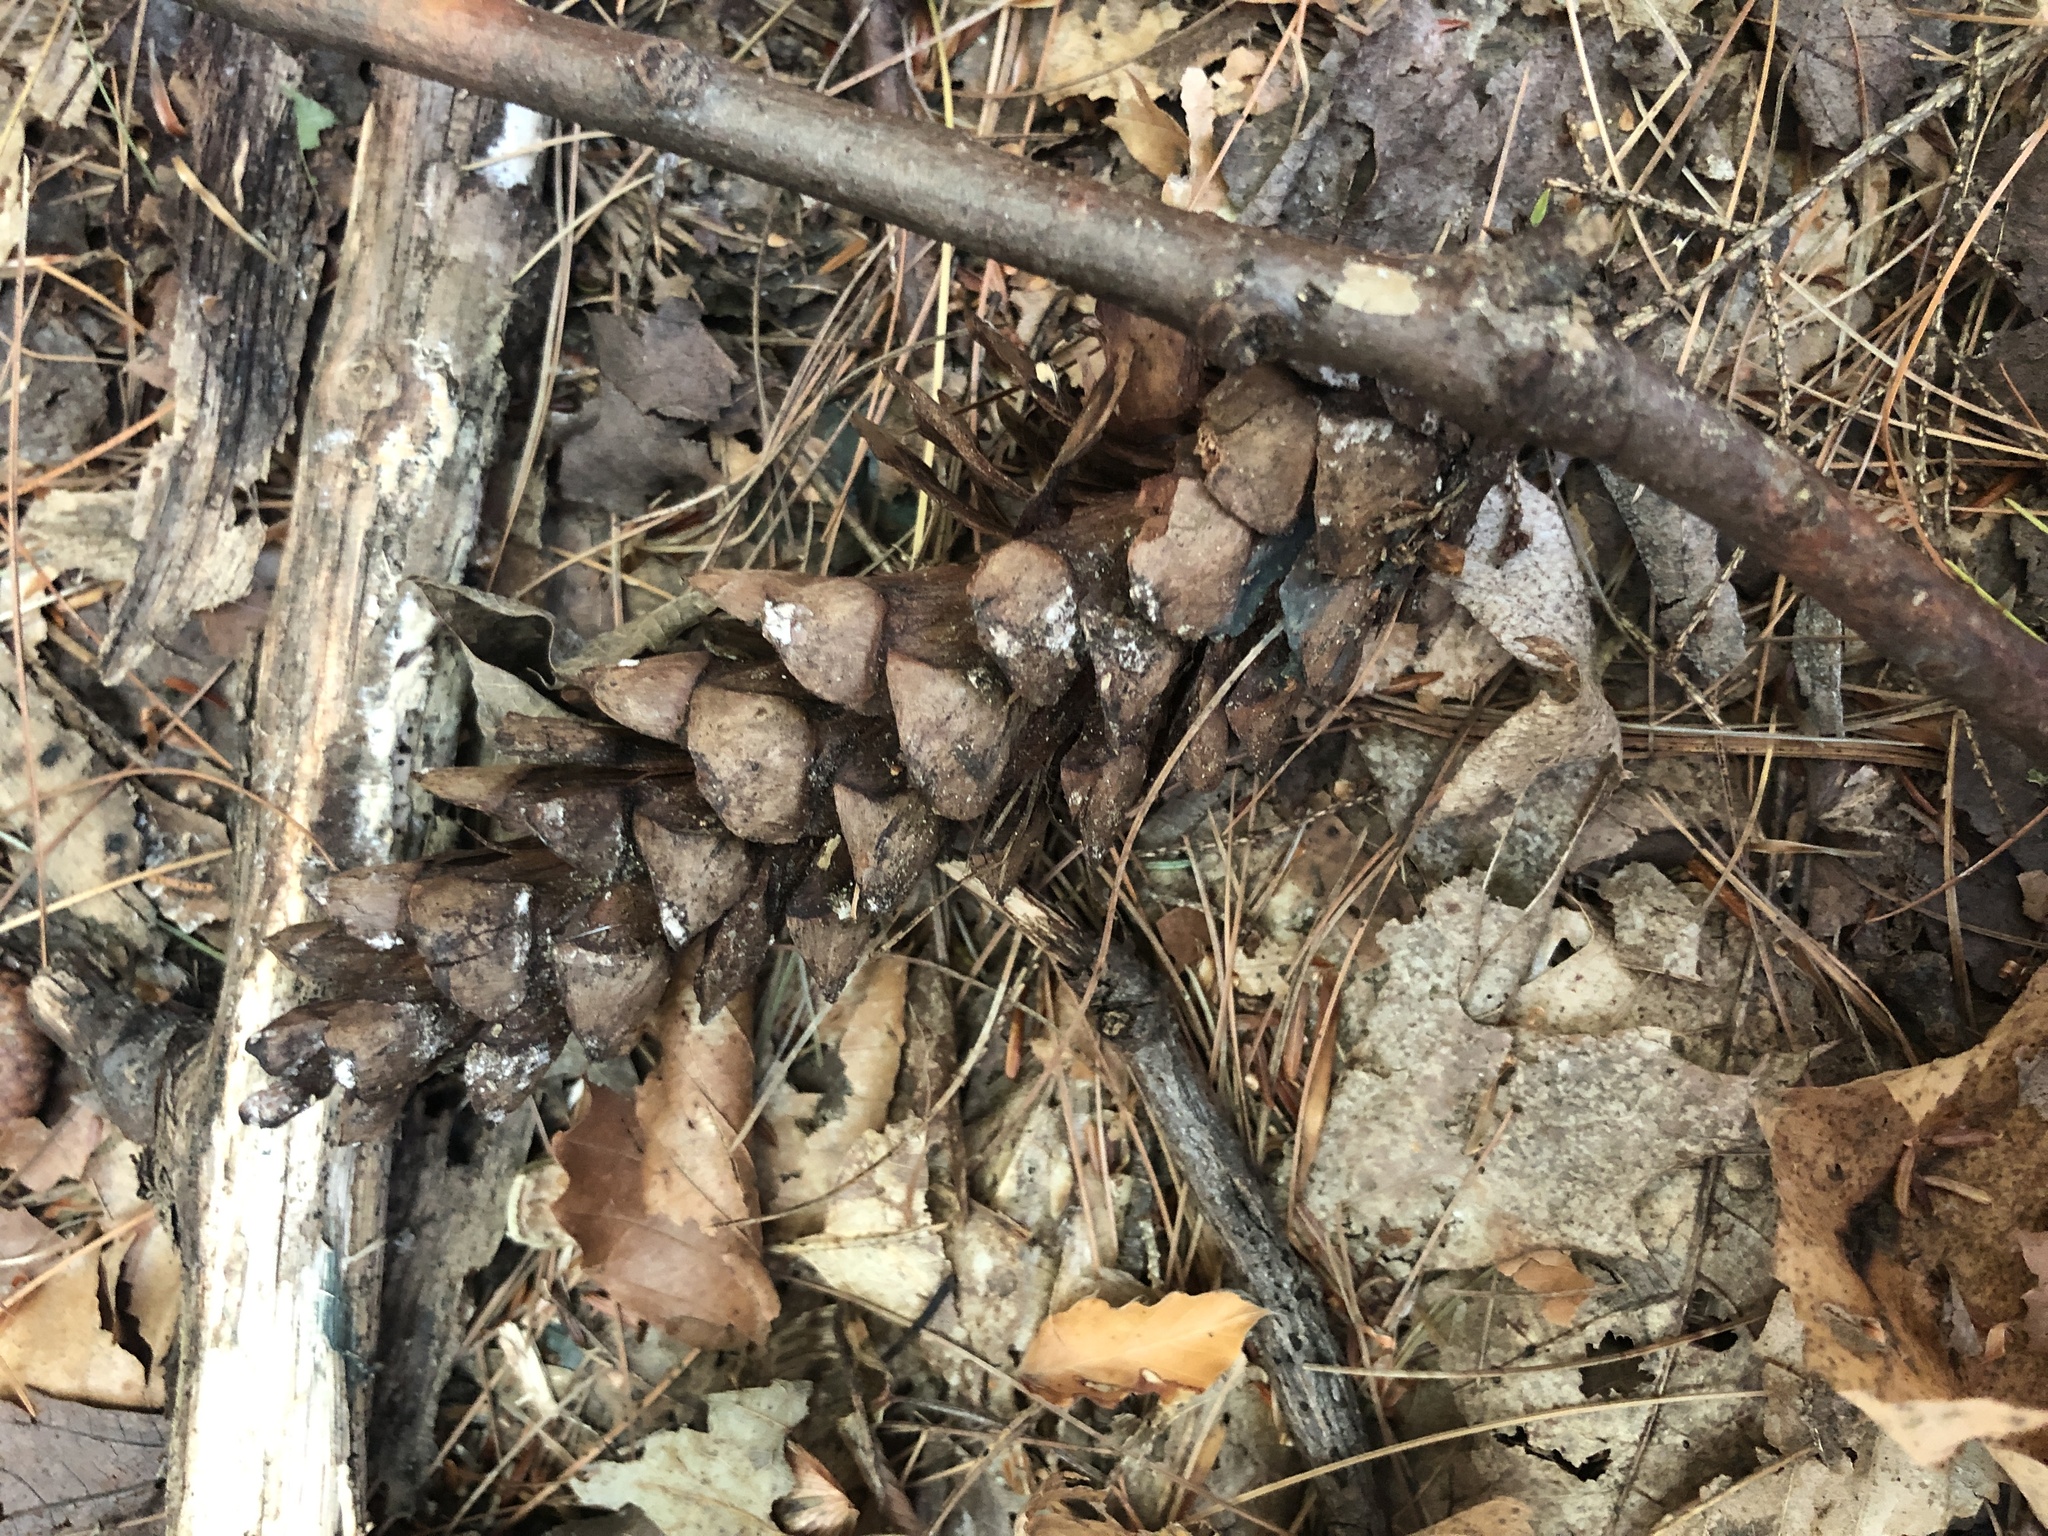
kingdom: Plantae
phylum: Tracheophyta
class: Pinopsida
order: Pinales
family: Pinaceae
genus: Pinus
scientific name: Pinus strobus
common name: Weymouth pine
